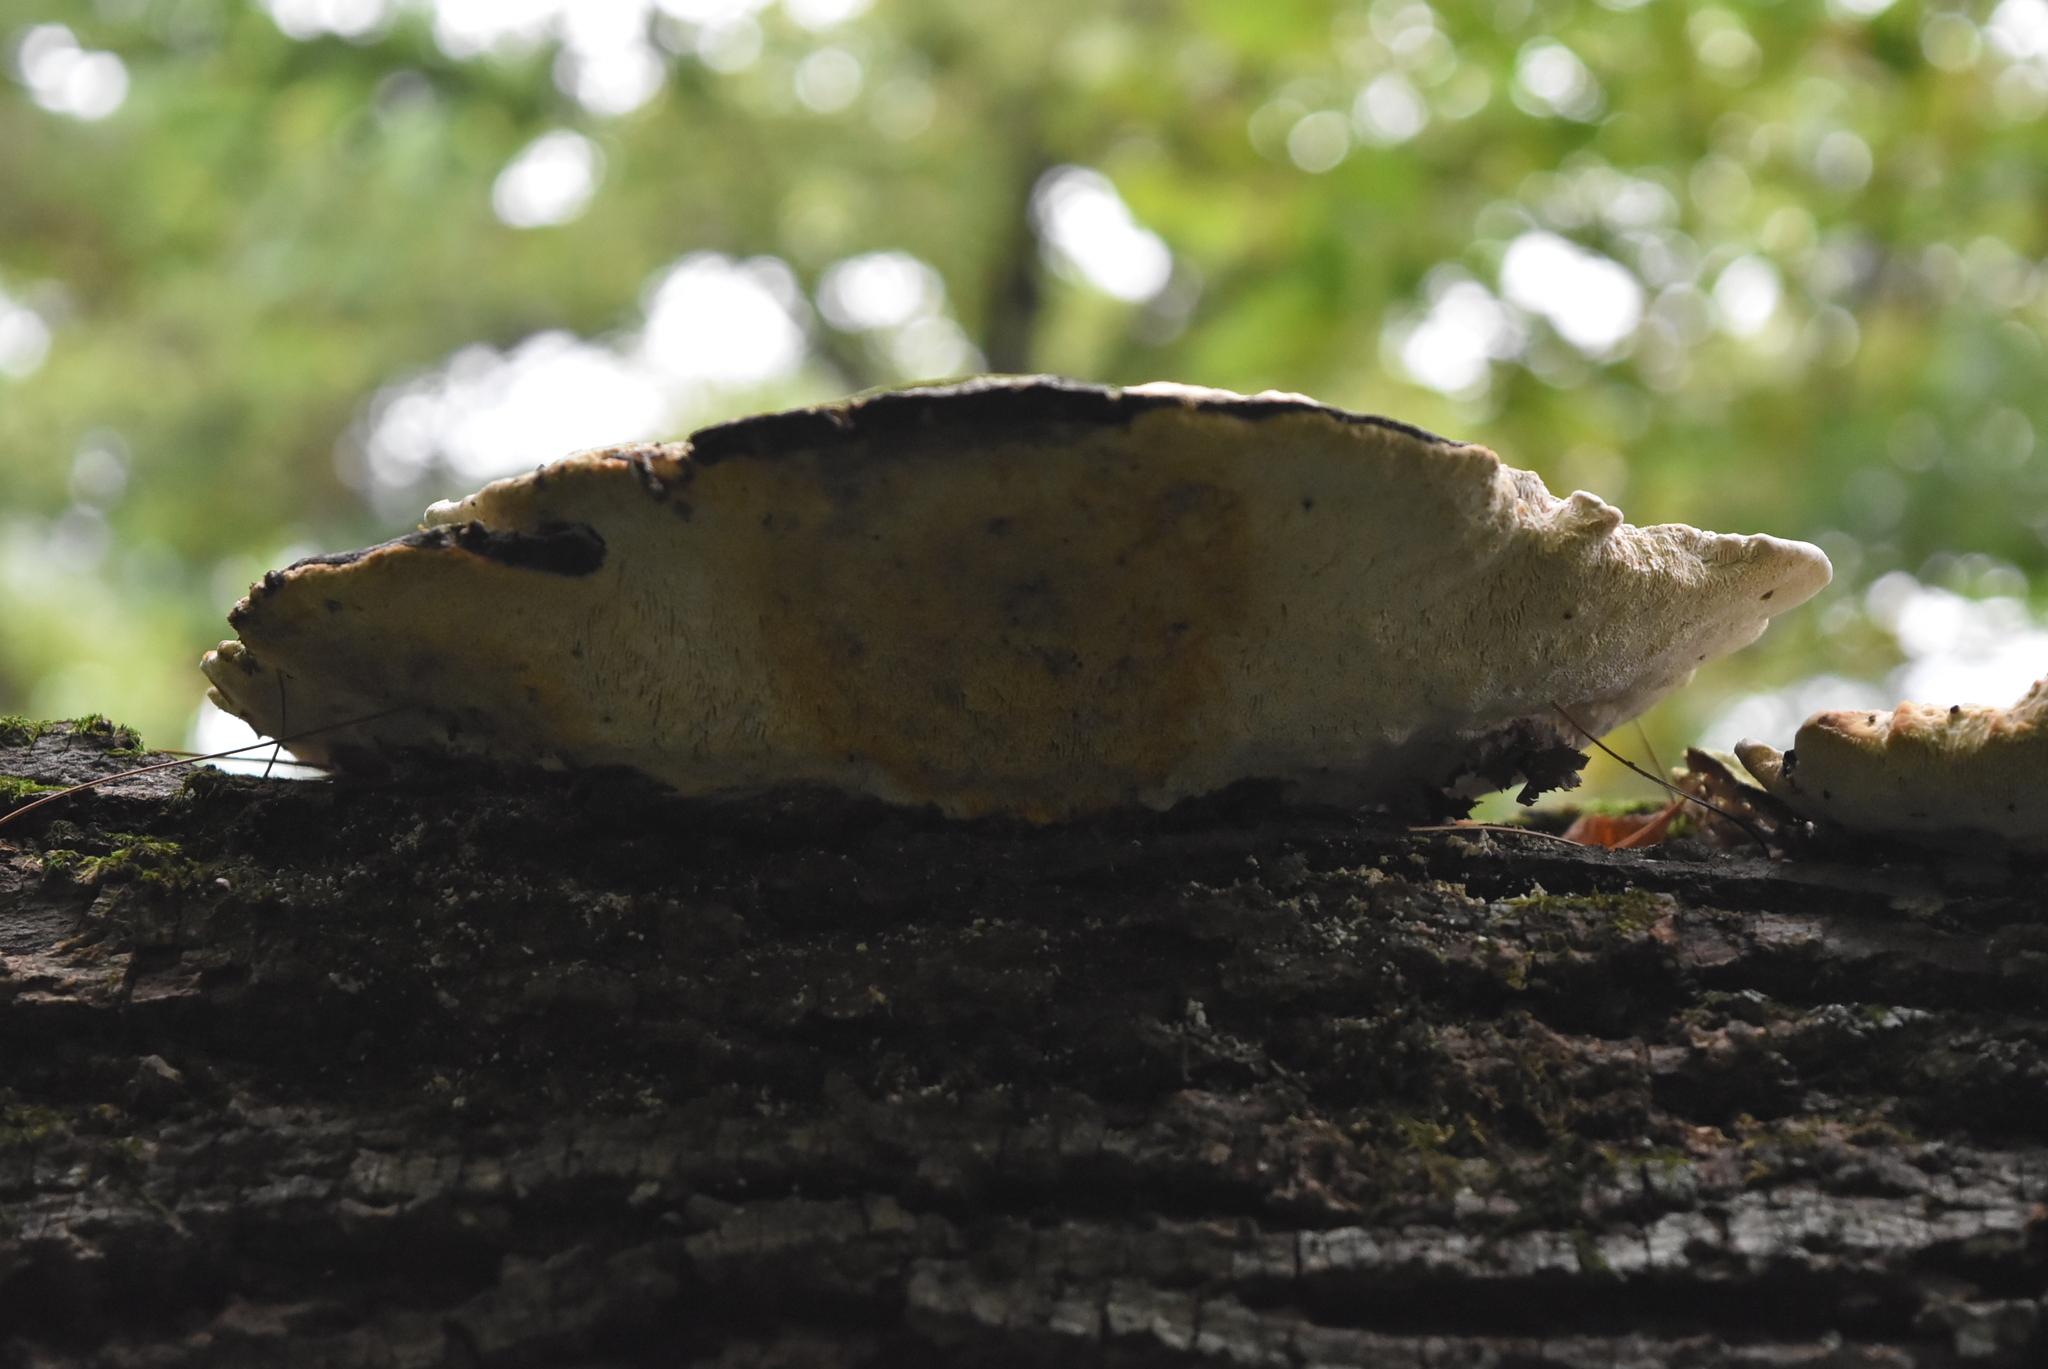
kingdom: Fungi
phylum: Basidiomycota
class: Agaricomycetes
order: Polyporales
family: Polyporaceae
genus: Trametes
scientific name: Trametes gibbosa
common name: Lumpy bracket
